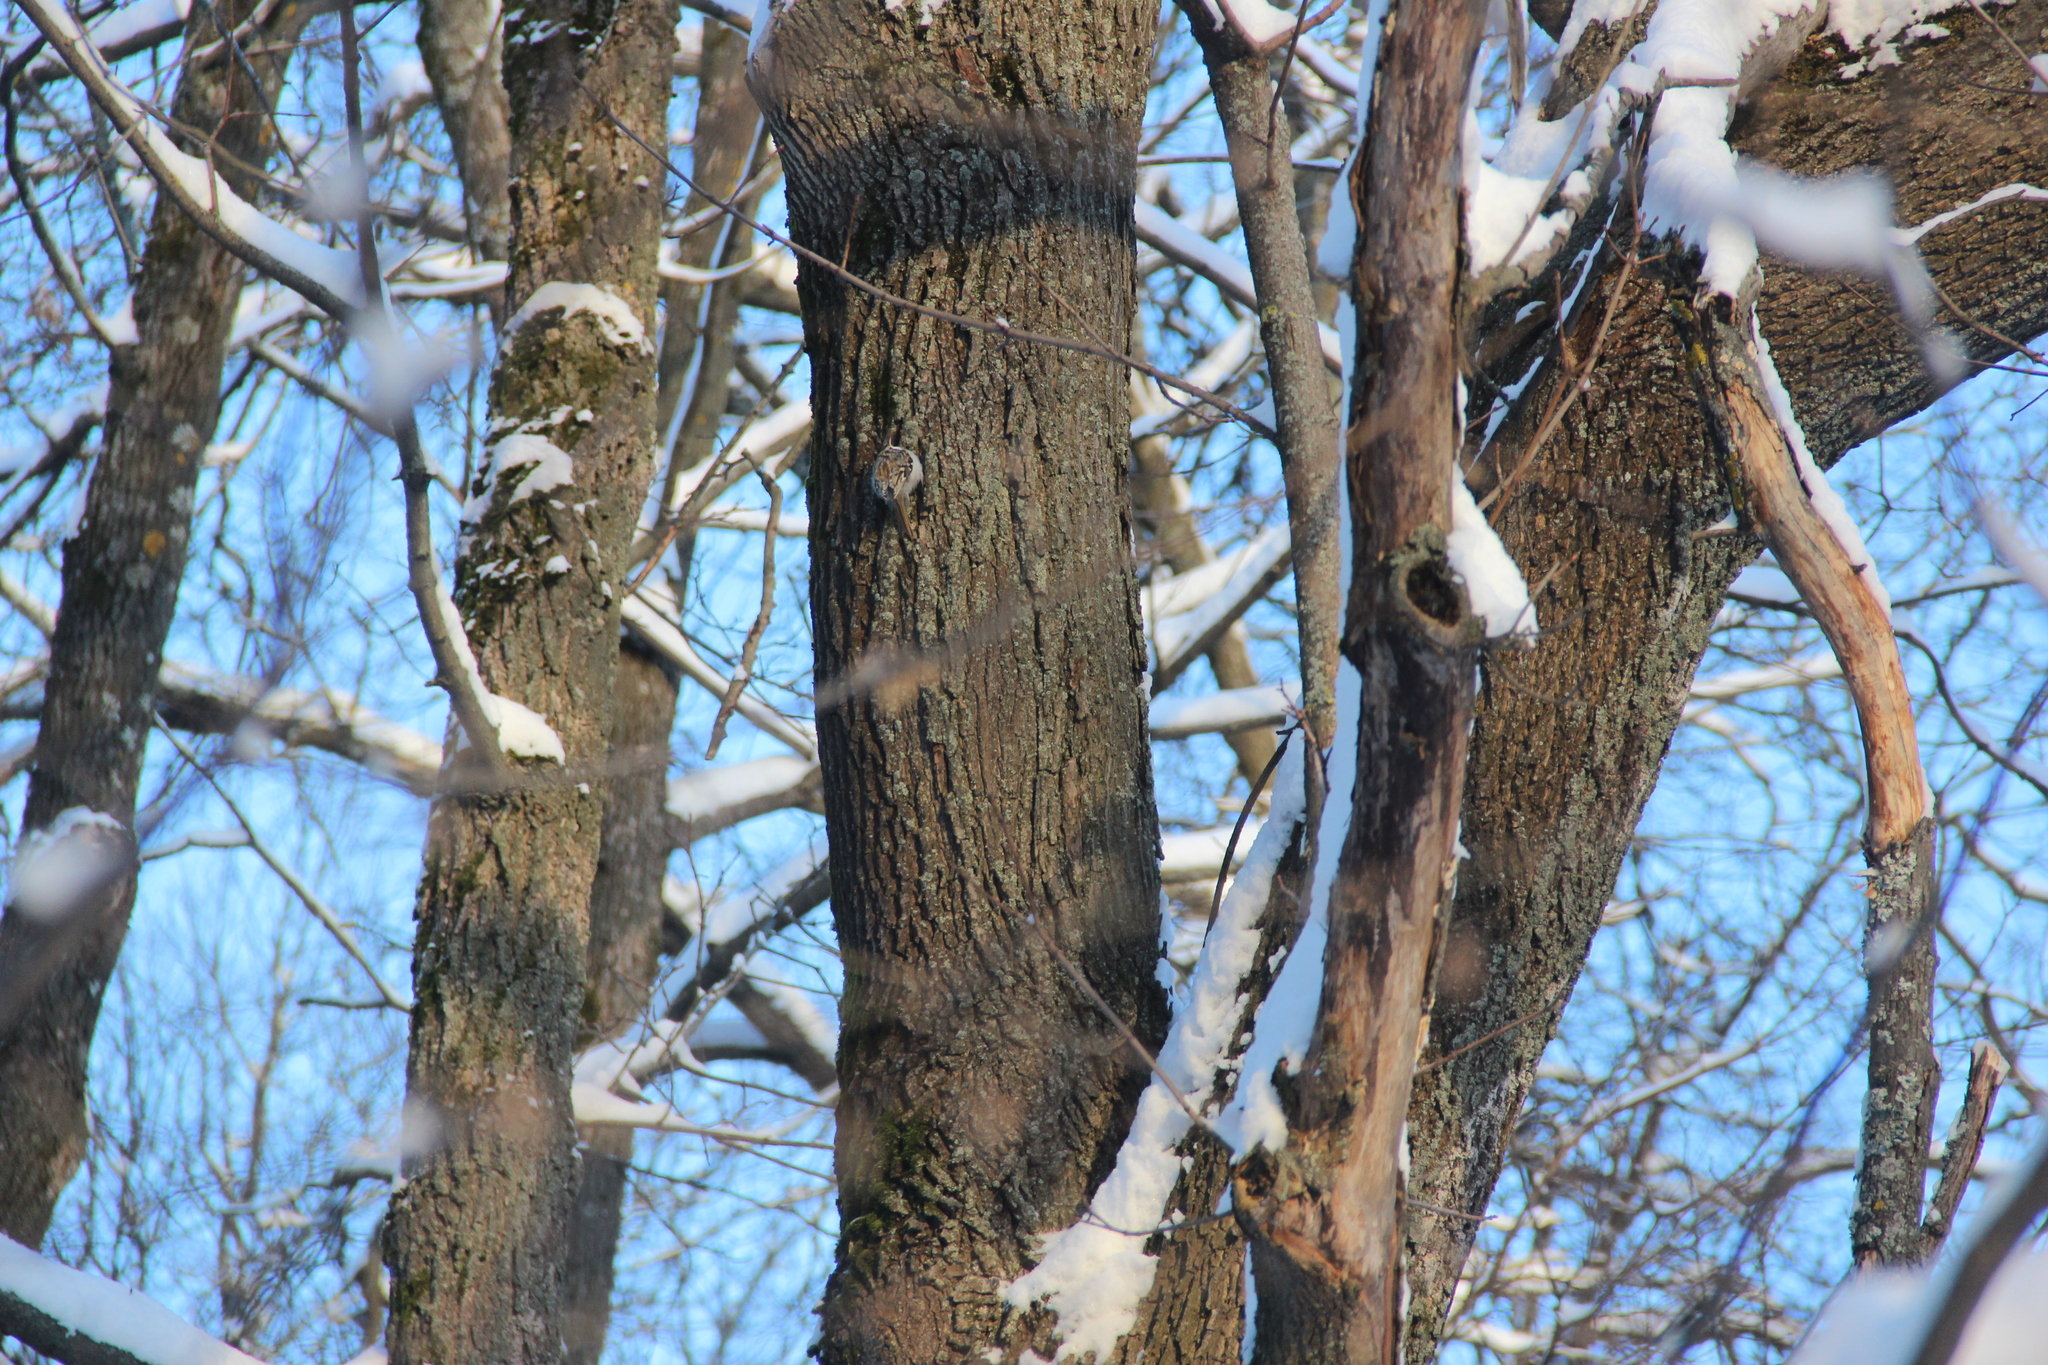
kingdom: Animalia
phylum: Chordata
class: Aves
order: Passeriformes
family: Certhiidae
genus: Certhia
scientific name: Certhia familiaris
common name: Eurasian treecreeper
